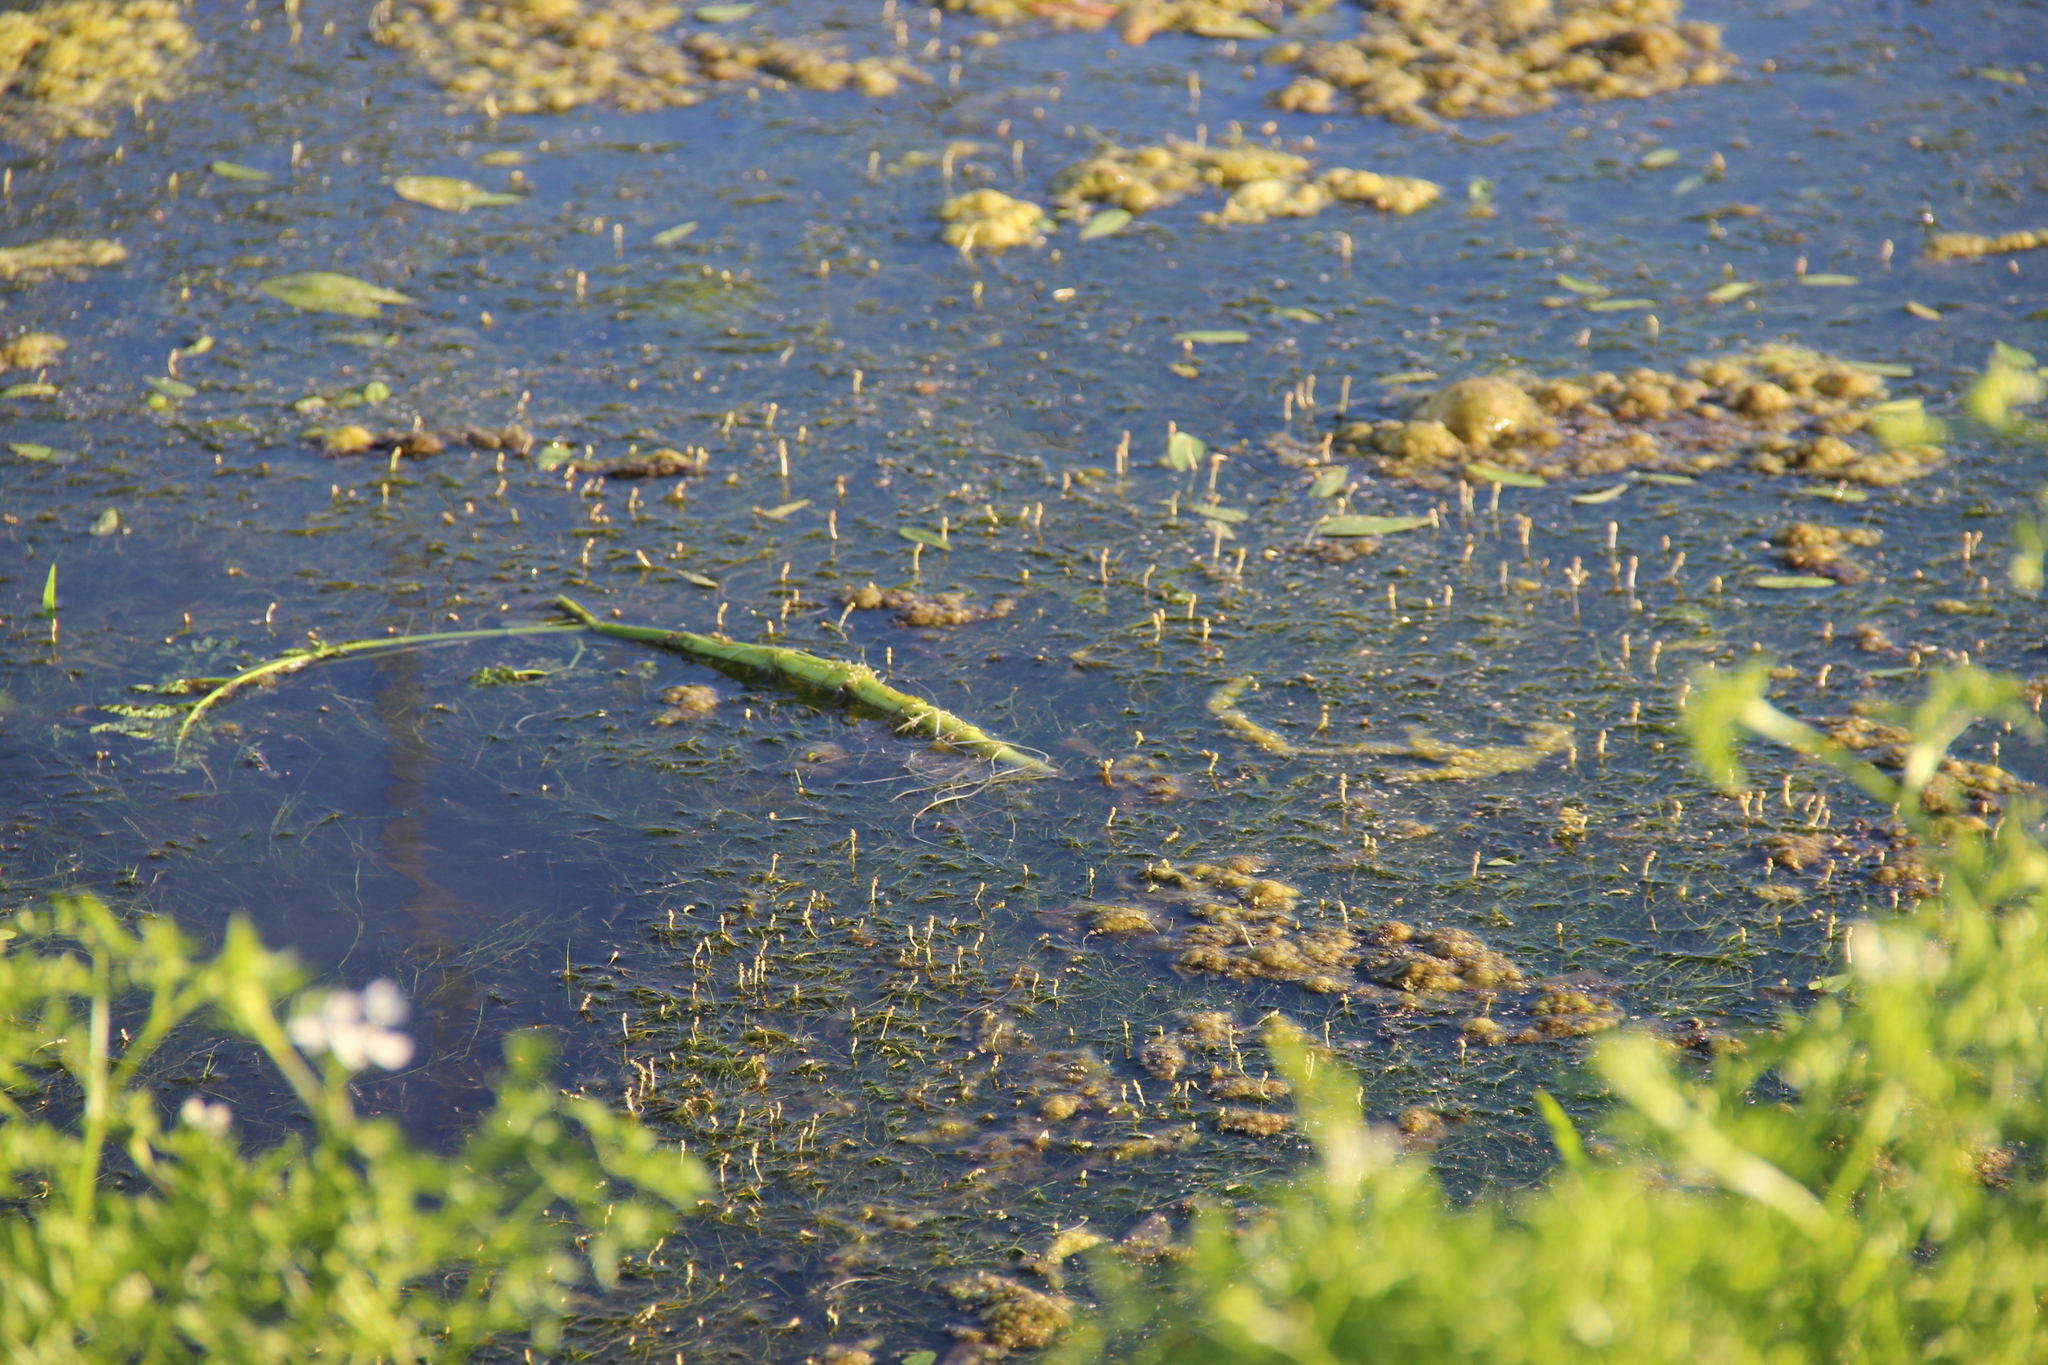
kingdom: Plantae
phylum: Tracheophyta
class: Liliopsida
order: Alismatales
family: Potamogetonaceae
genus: Potamogeton
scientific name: Potamogeton
